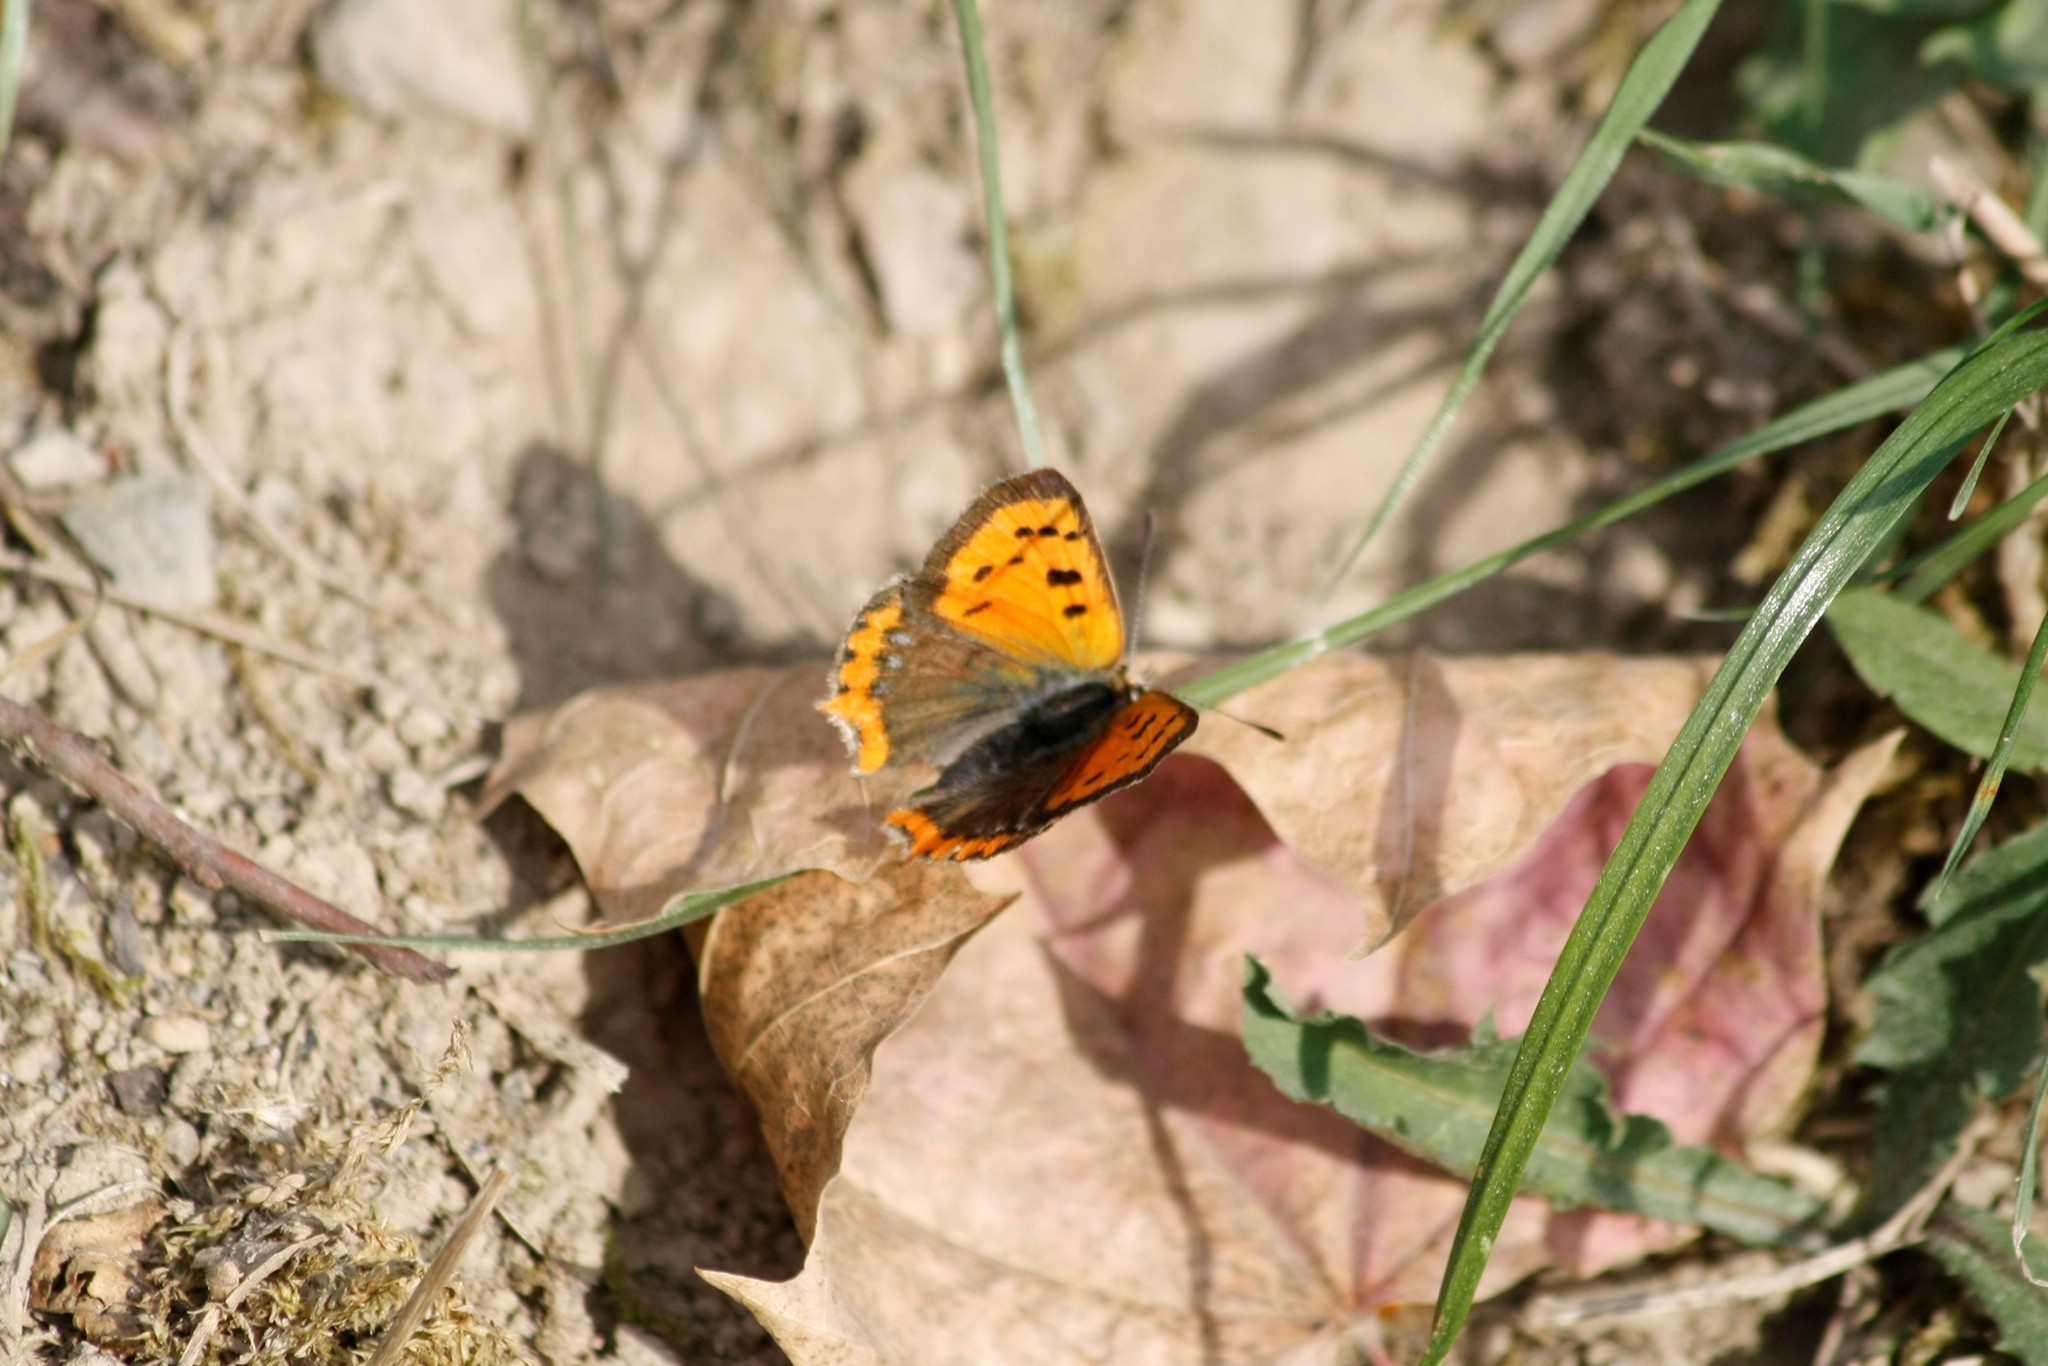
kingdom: Animalia
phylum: Arthropoda
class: Insecta
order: Lepidoptera
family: Lycaenidae
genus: Lycaena
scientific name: Lycaena phlaeas
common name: Small copper
